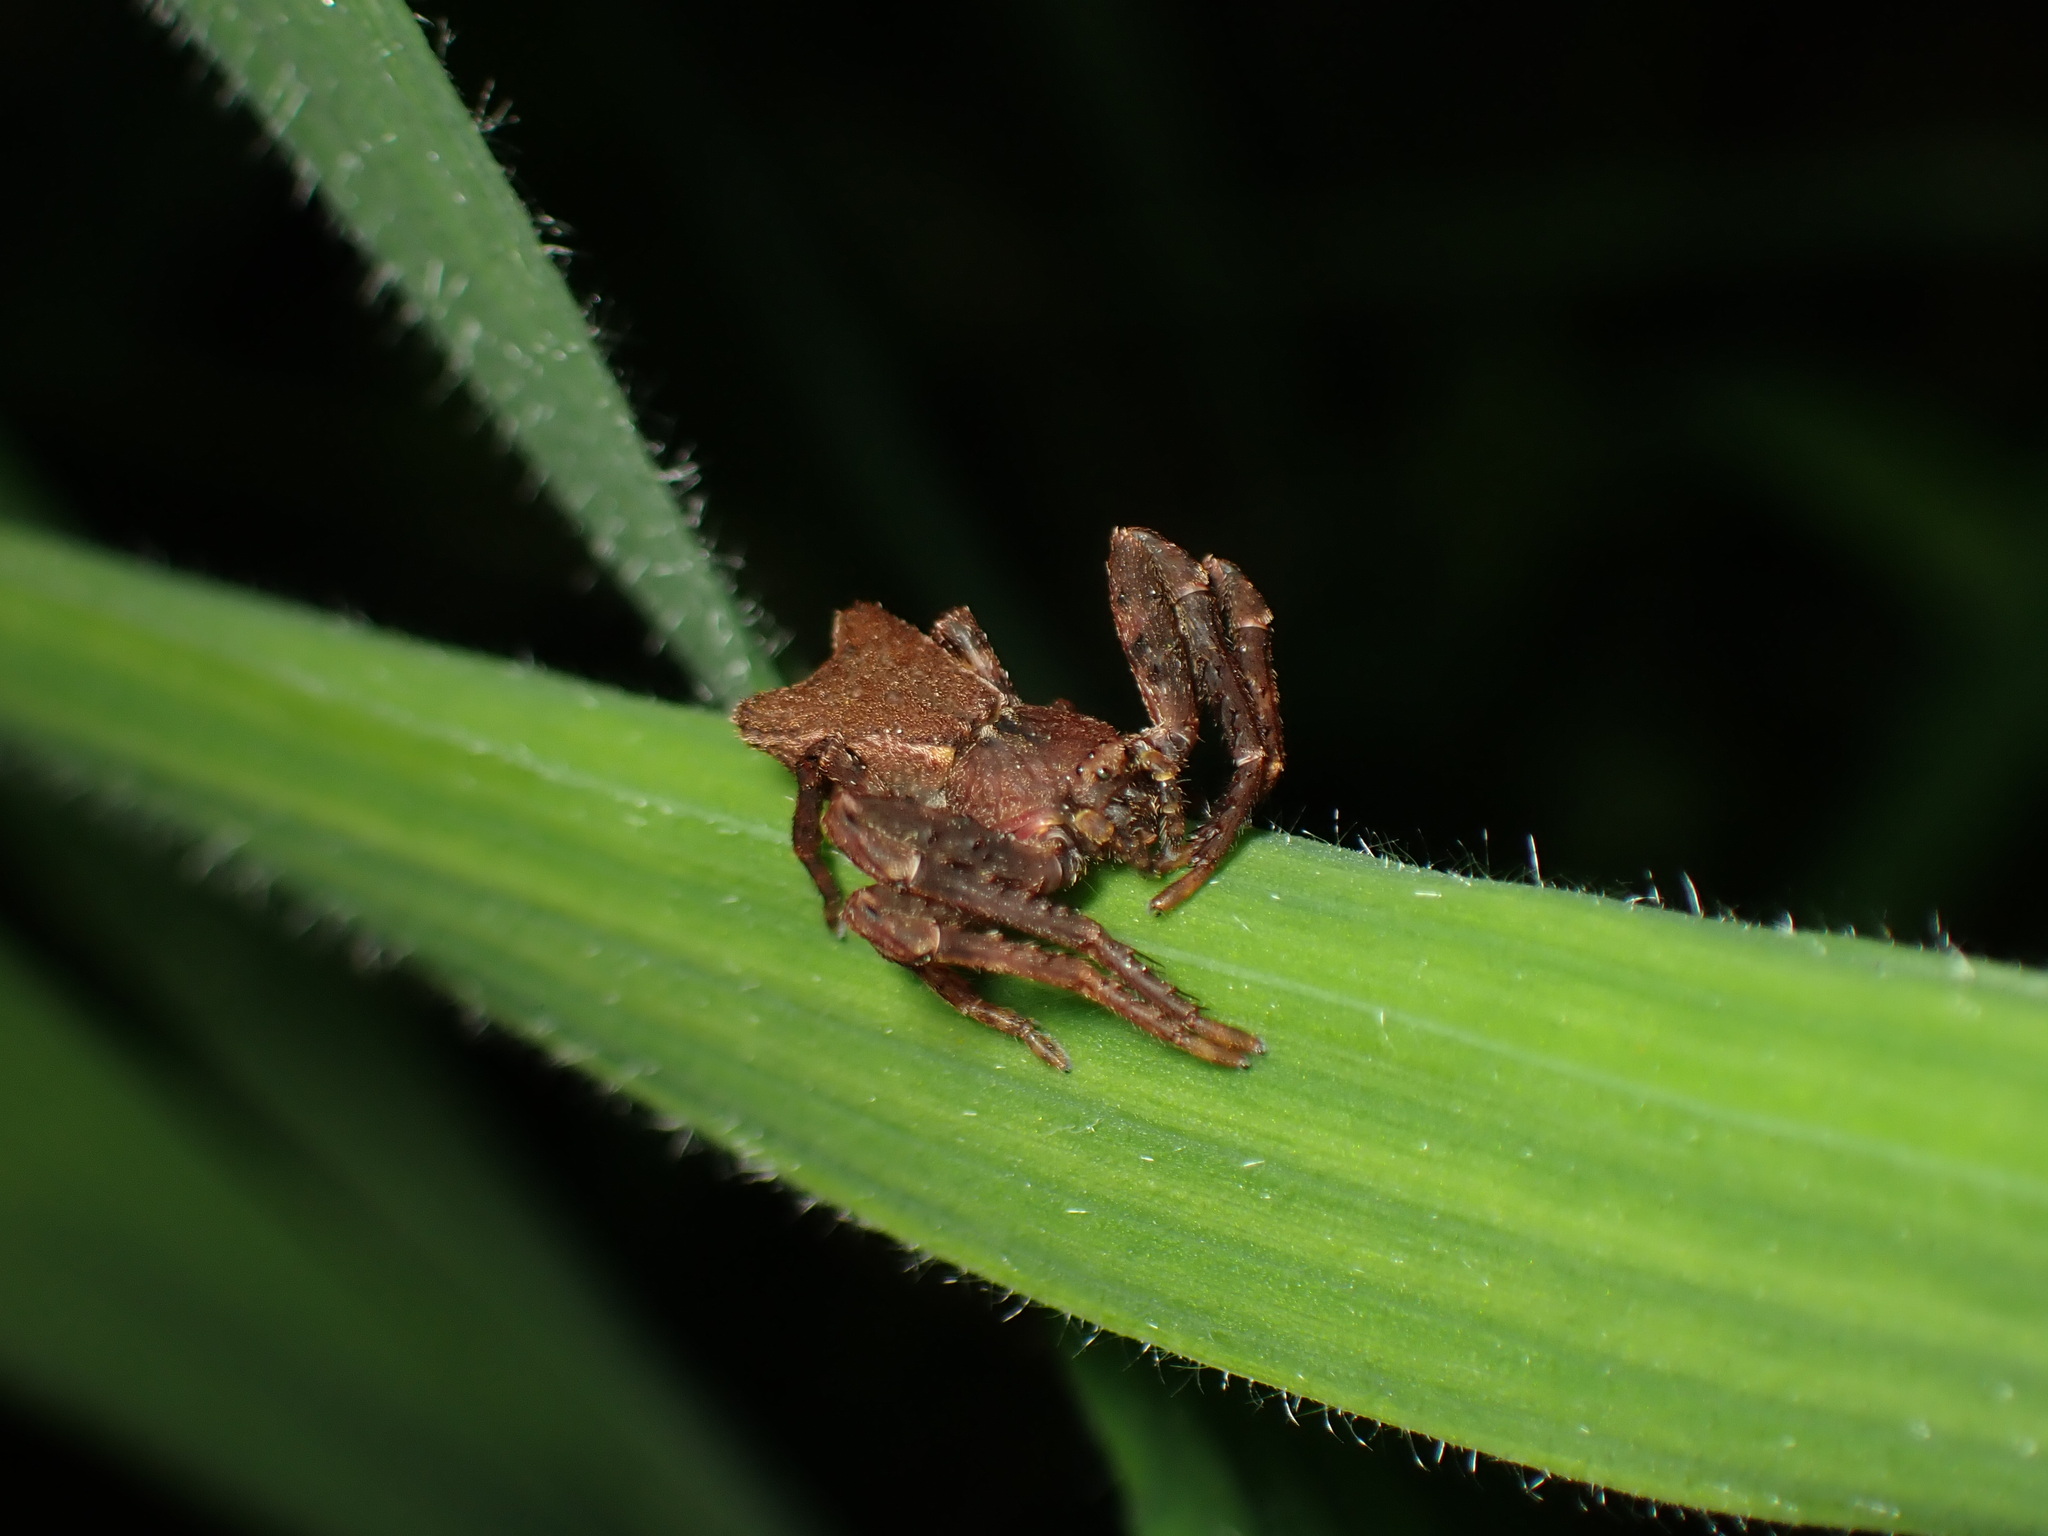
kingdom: Animalia
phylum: Arthropoda
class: Arachnida
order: Araneae
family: Thomisidae
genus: Sidymella
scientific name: Sidymella angularis
